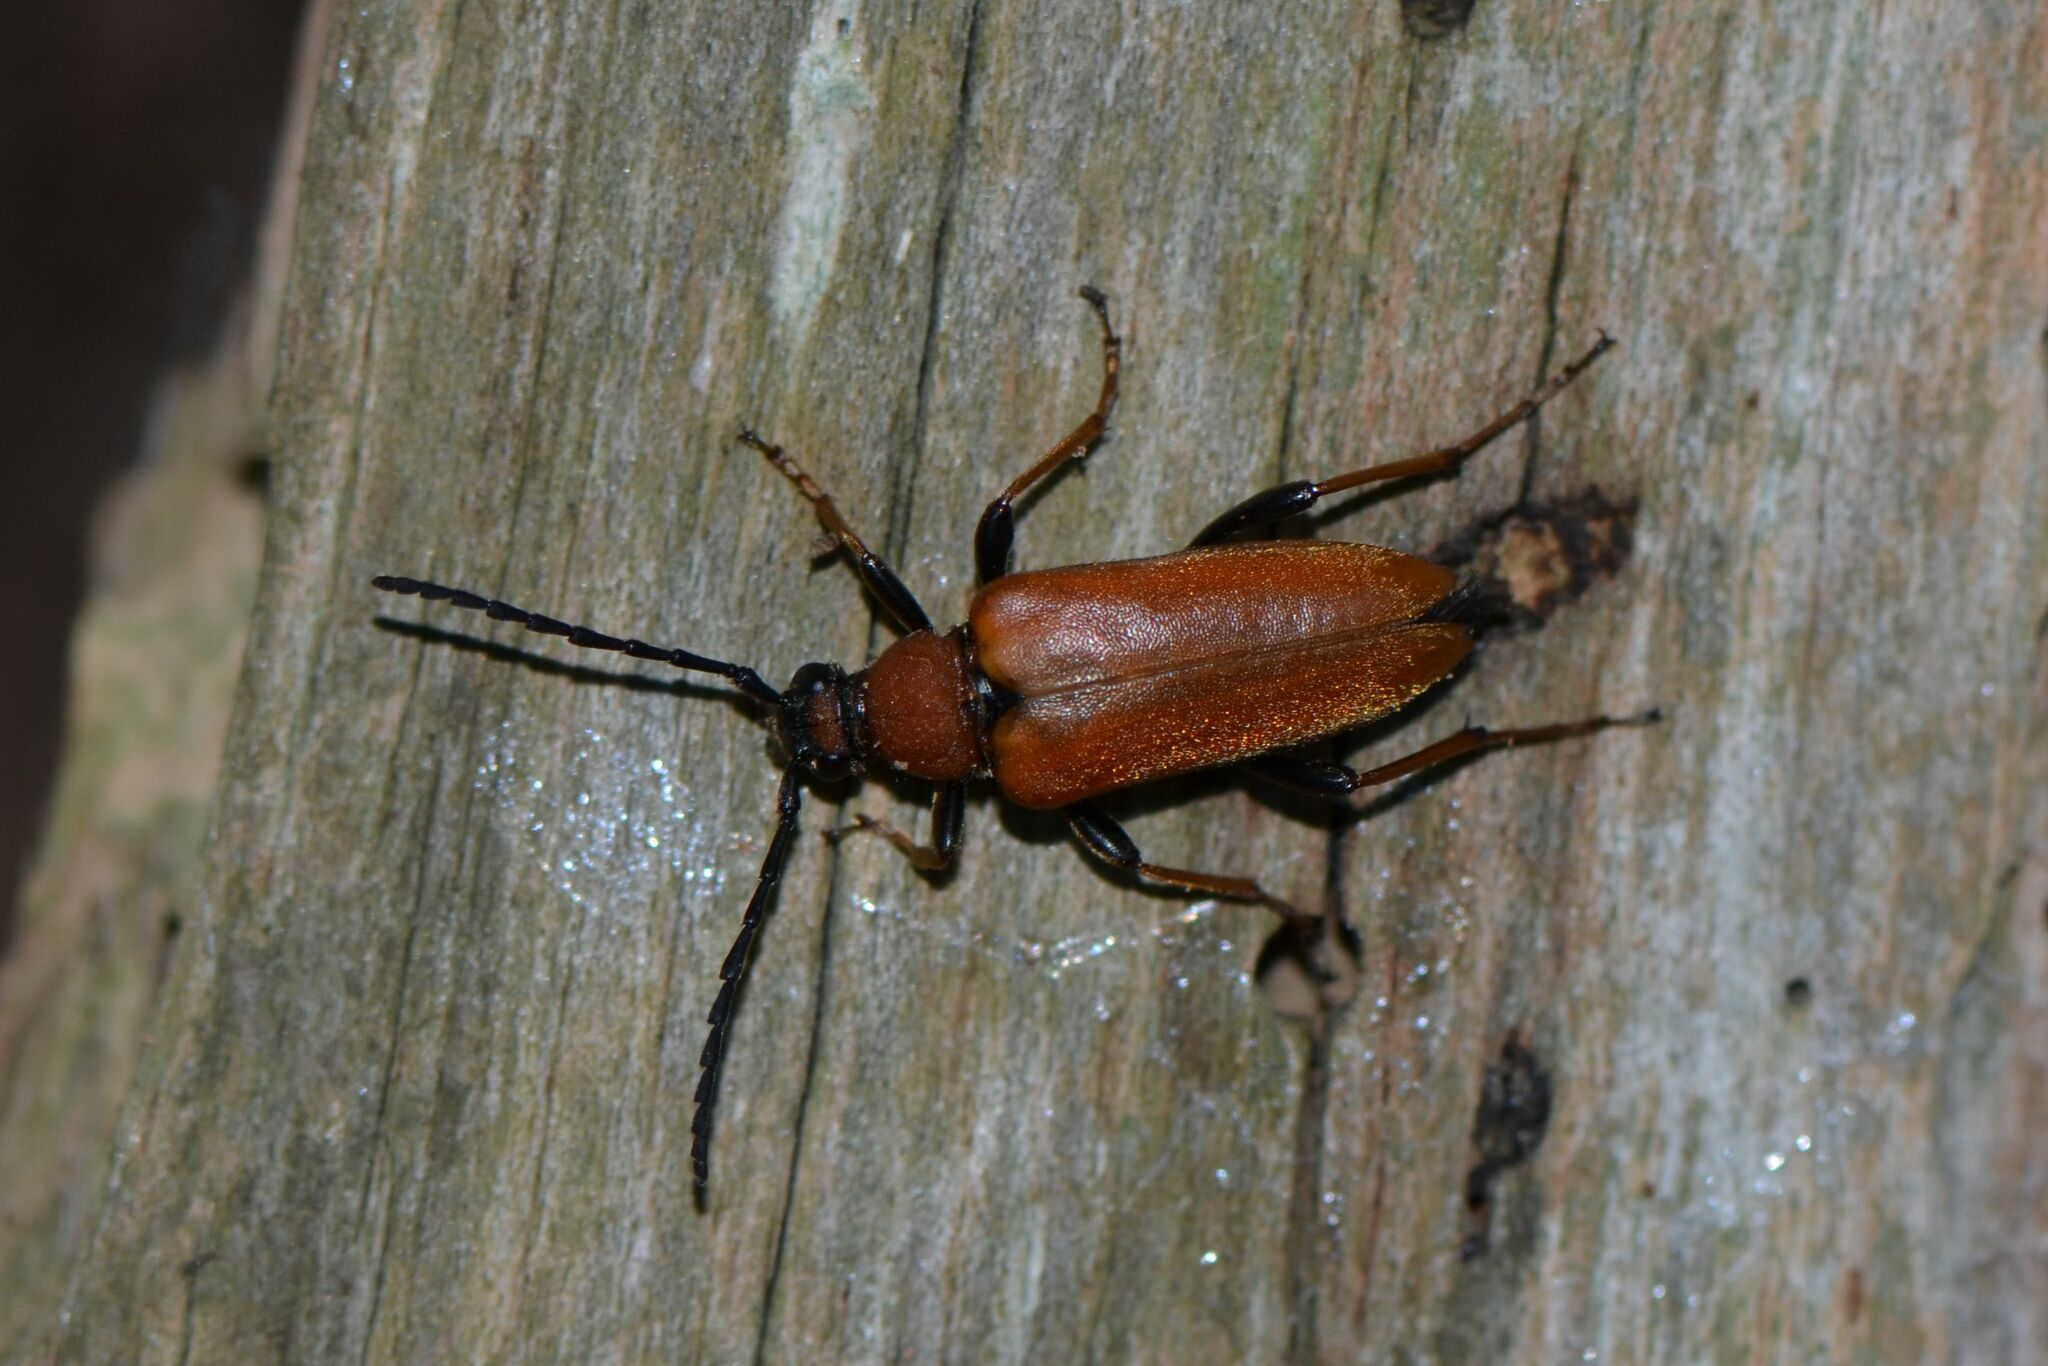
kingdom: Animalia
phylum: Arthropoda
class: Insecta
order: Coleoptera
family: Cerambycidae
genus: Stictoleptura
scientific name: Stictoleptura rubra
